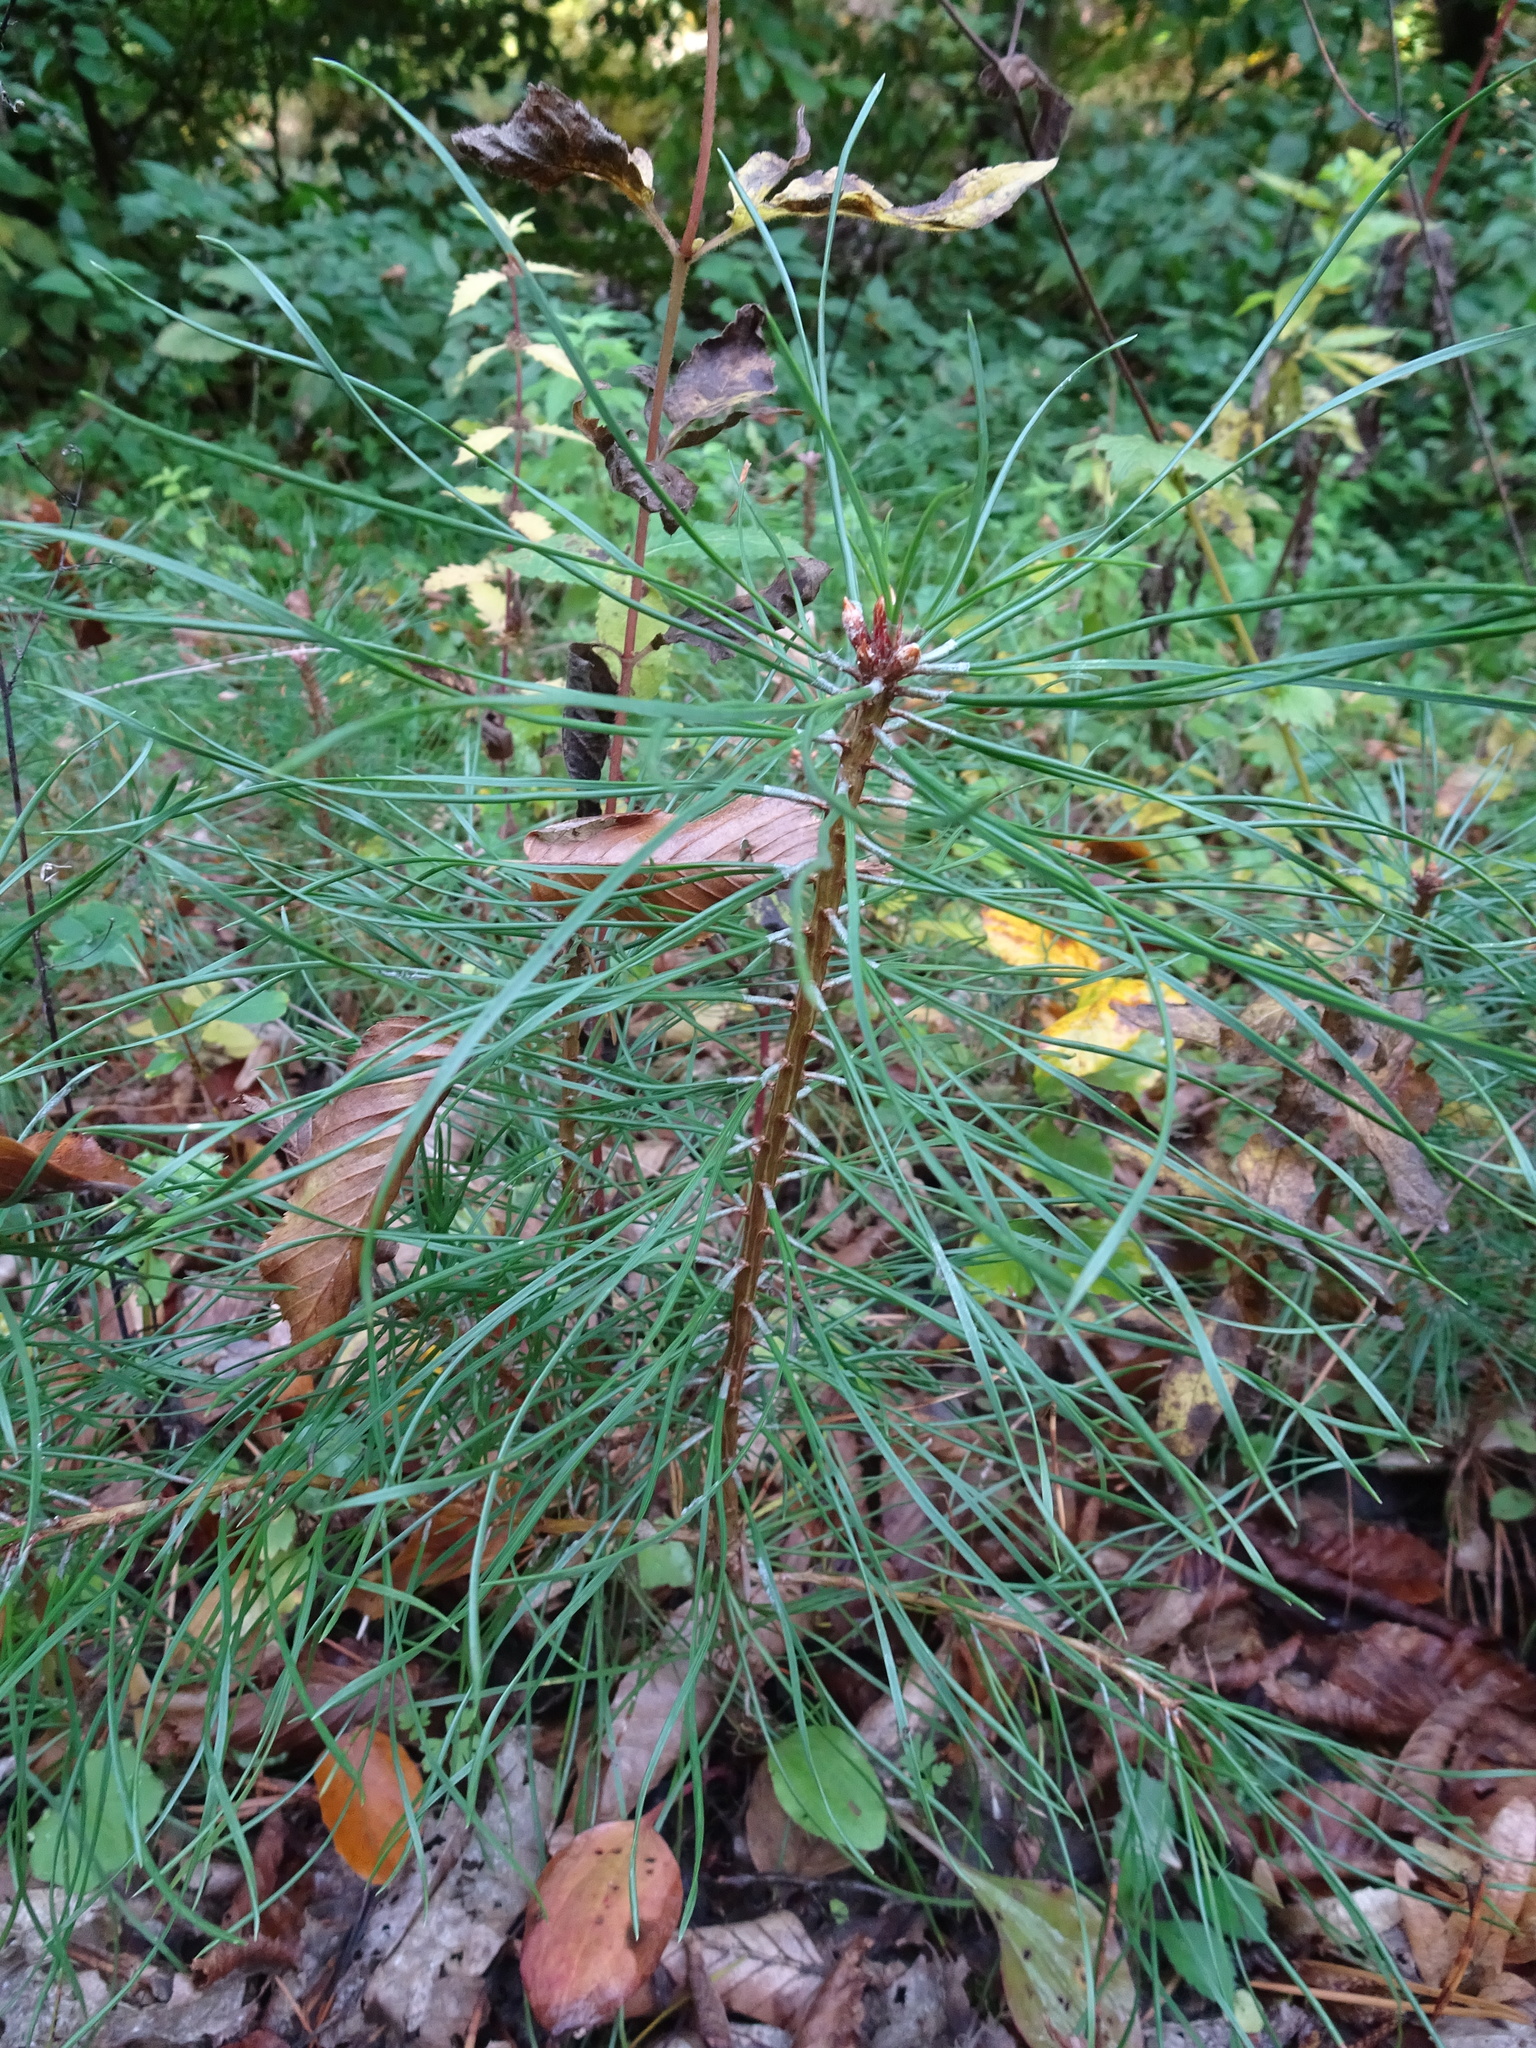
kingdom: Plantae
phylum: Tracheophyta
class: Pinopsida
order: Pinales
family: Pinaceae
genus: Pinus
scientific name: Pinus sylvestris
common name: Scots pine
